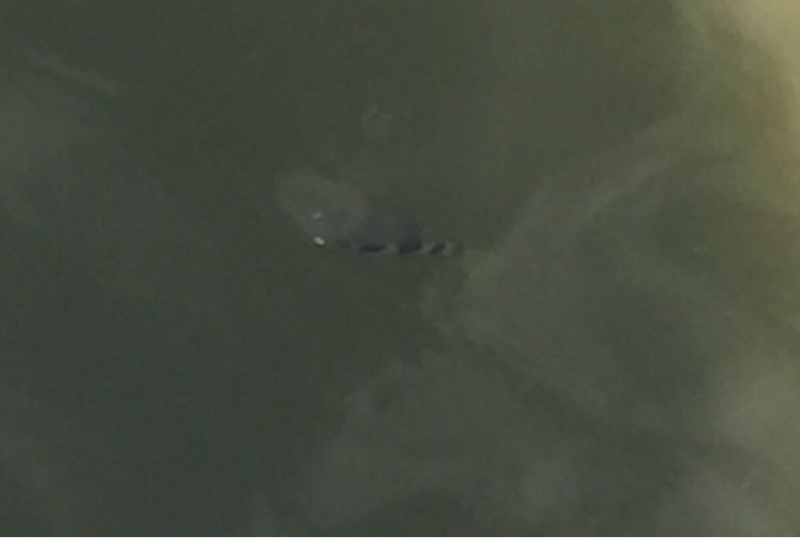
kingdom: Animalia
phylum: Chordata
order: Perciformes
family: Toxotidae
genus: Toxotes
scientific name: Toxotes microlepis
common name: Smallscale archerfish
